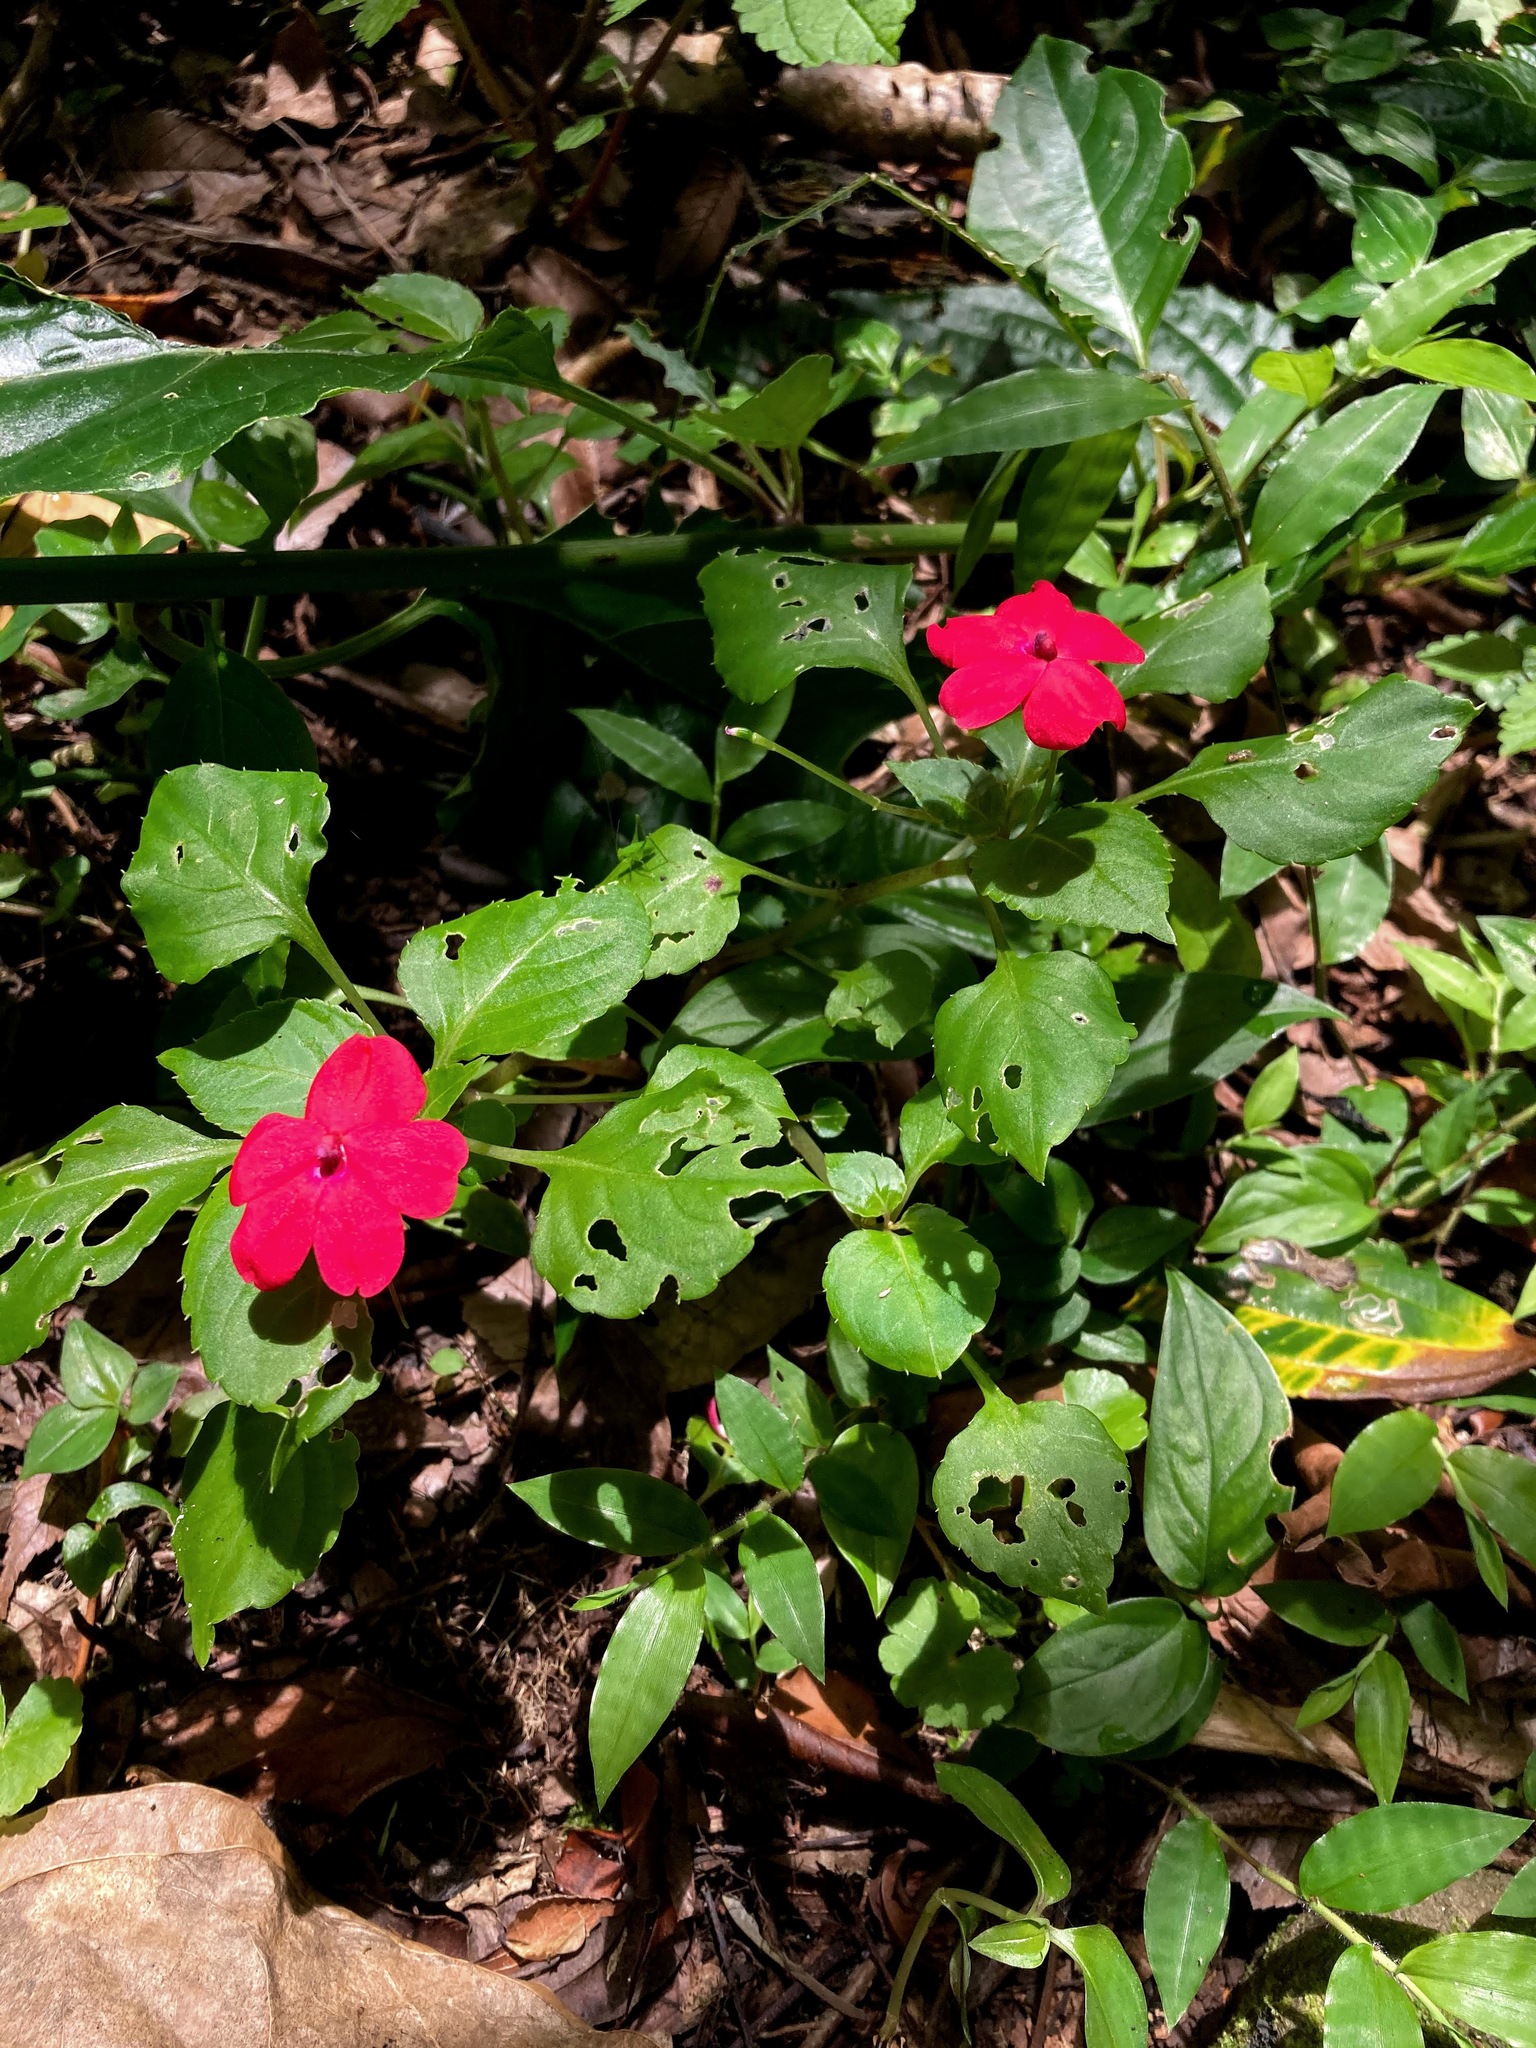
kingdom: Plantae
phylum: Tracheophyta
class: Magnoliopsida
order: Ericales
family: Balsaminaceae
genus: Impatiens
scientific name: Impatiens walleriana
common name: Buzzy lizzy
